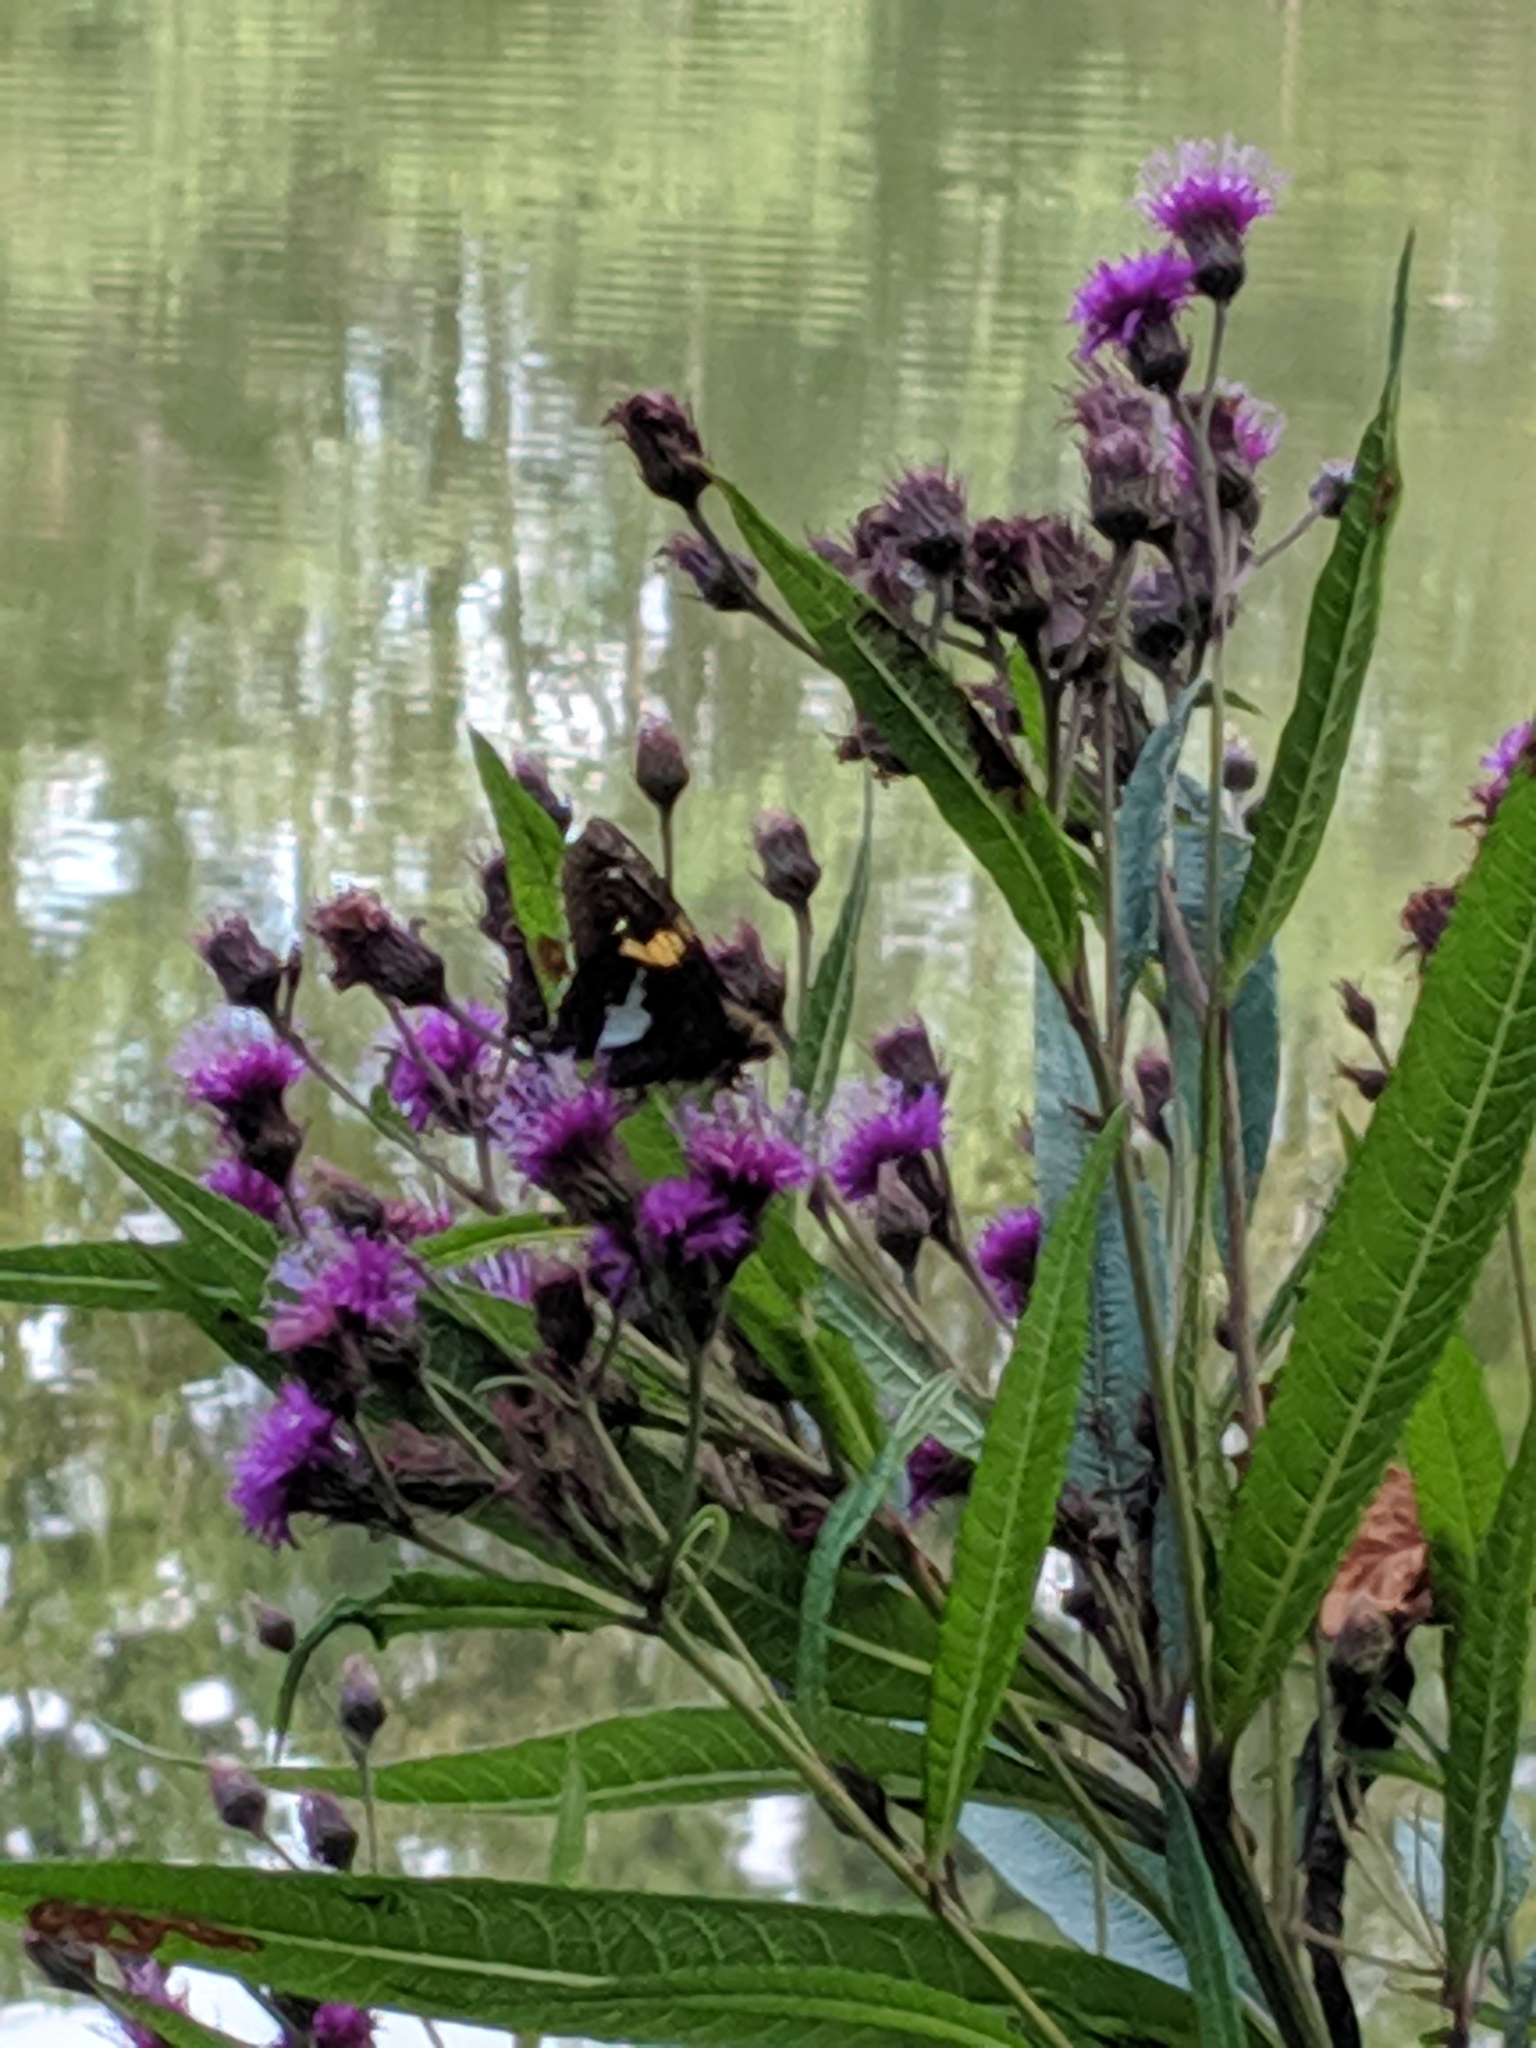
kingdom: Animalia
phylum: Arthropoda
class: Insecta
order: Lepidoptera
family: Hesperiidae
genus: Epargyreus
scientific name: Epargyreus clarus
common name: Silver-spotted skipper
